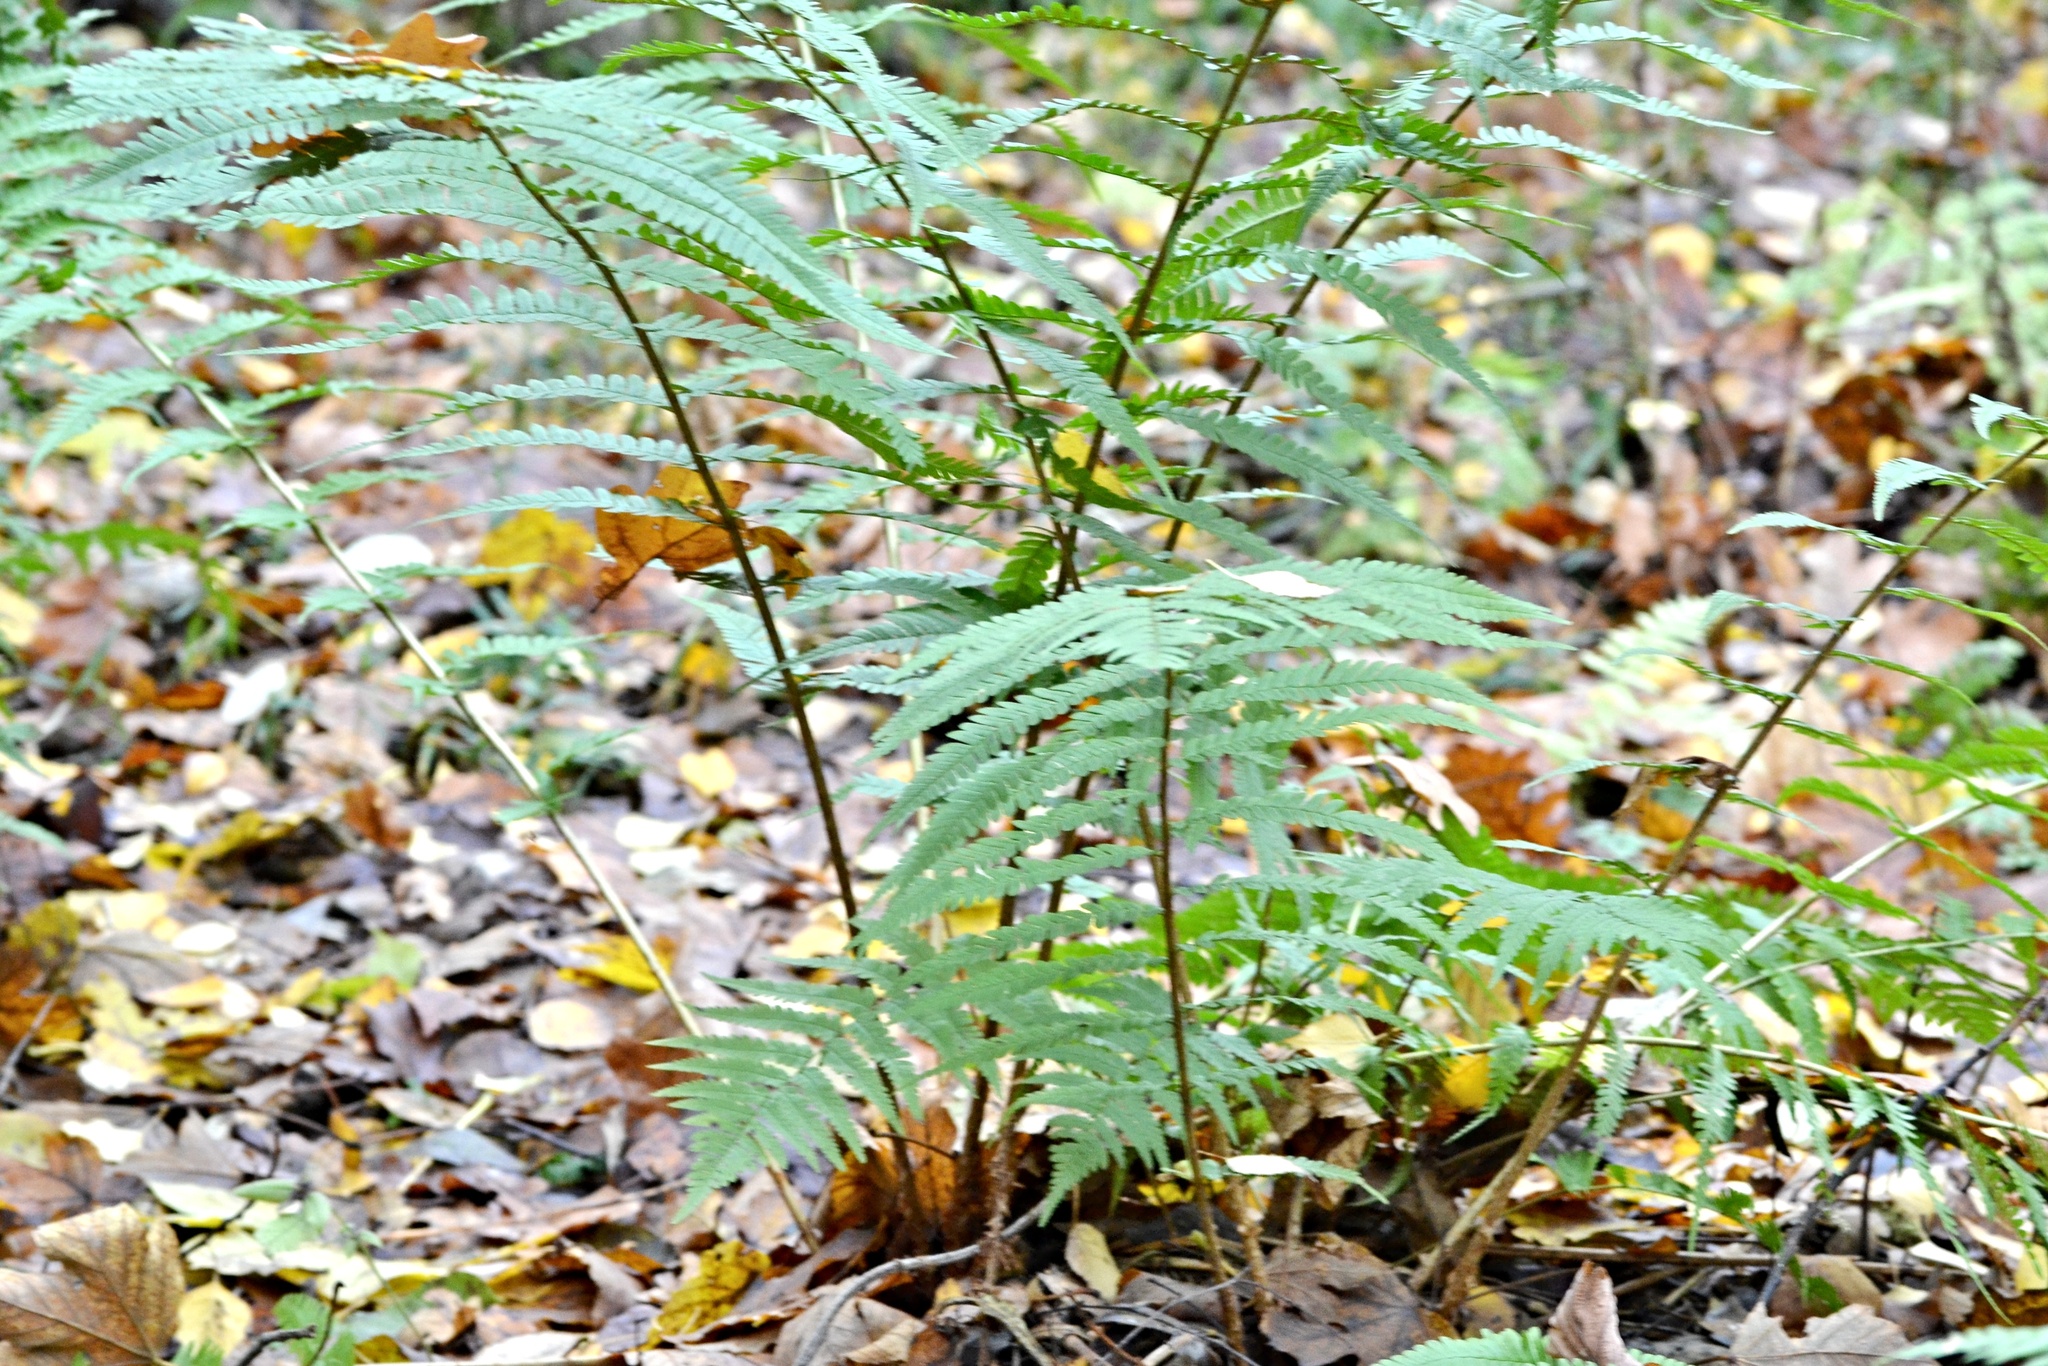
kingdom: Plantae
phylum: Tracheophyta
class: Polypodiopsida
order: Polypodiales
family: Dryopteridaceae
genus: Dryopteris
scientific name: Dryopteris filix-mas
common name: Male fern
